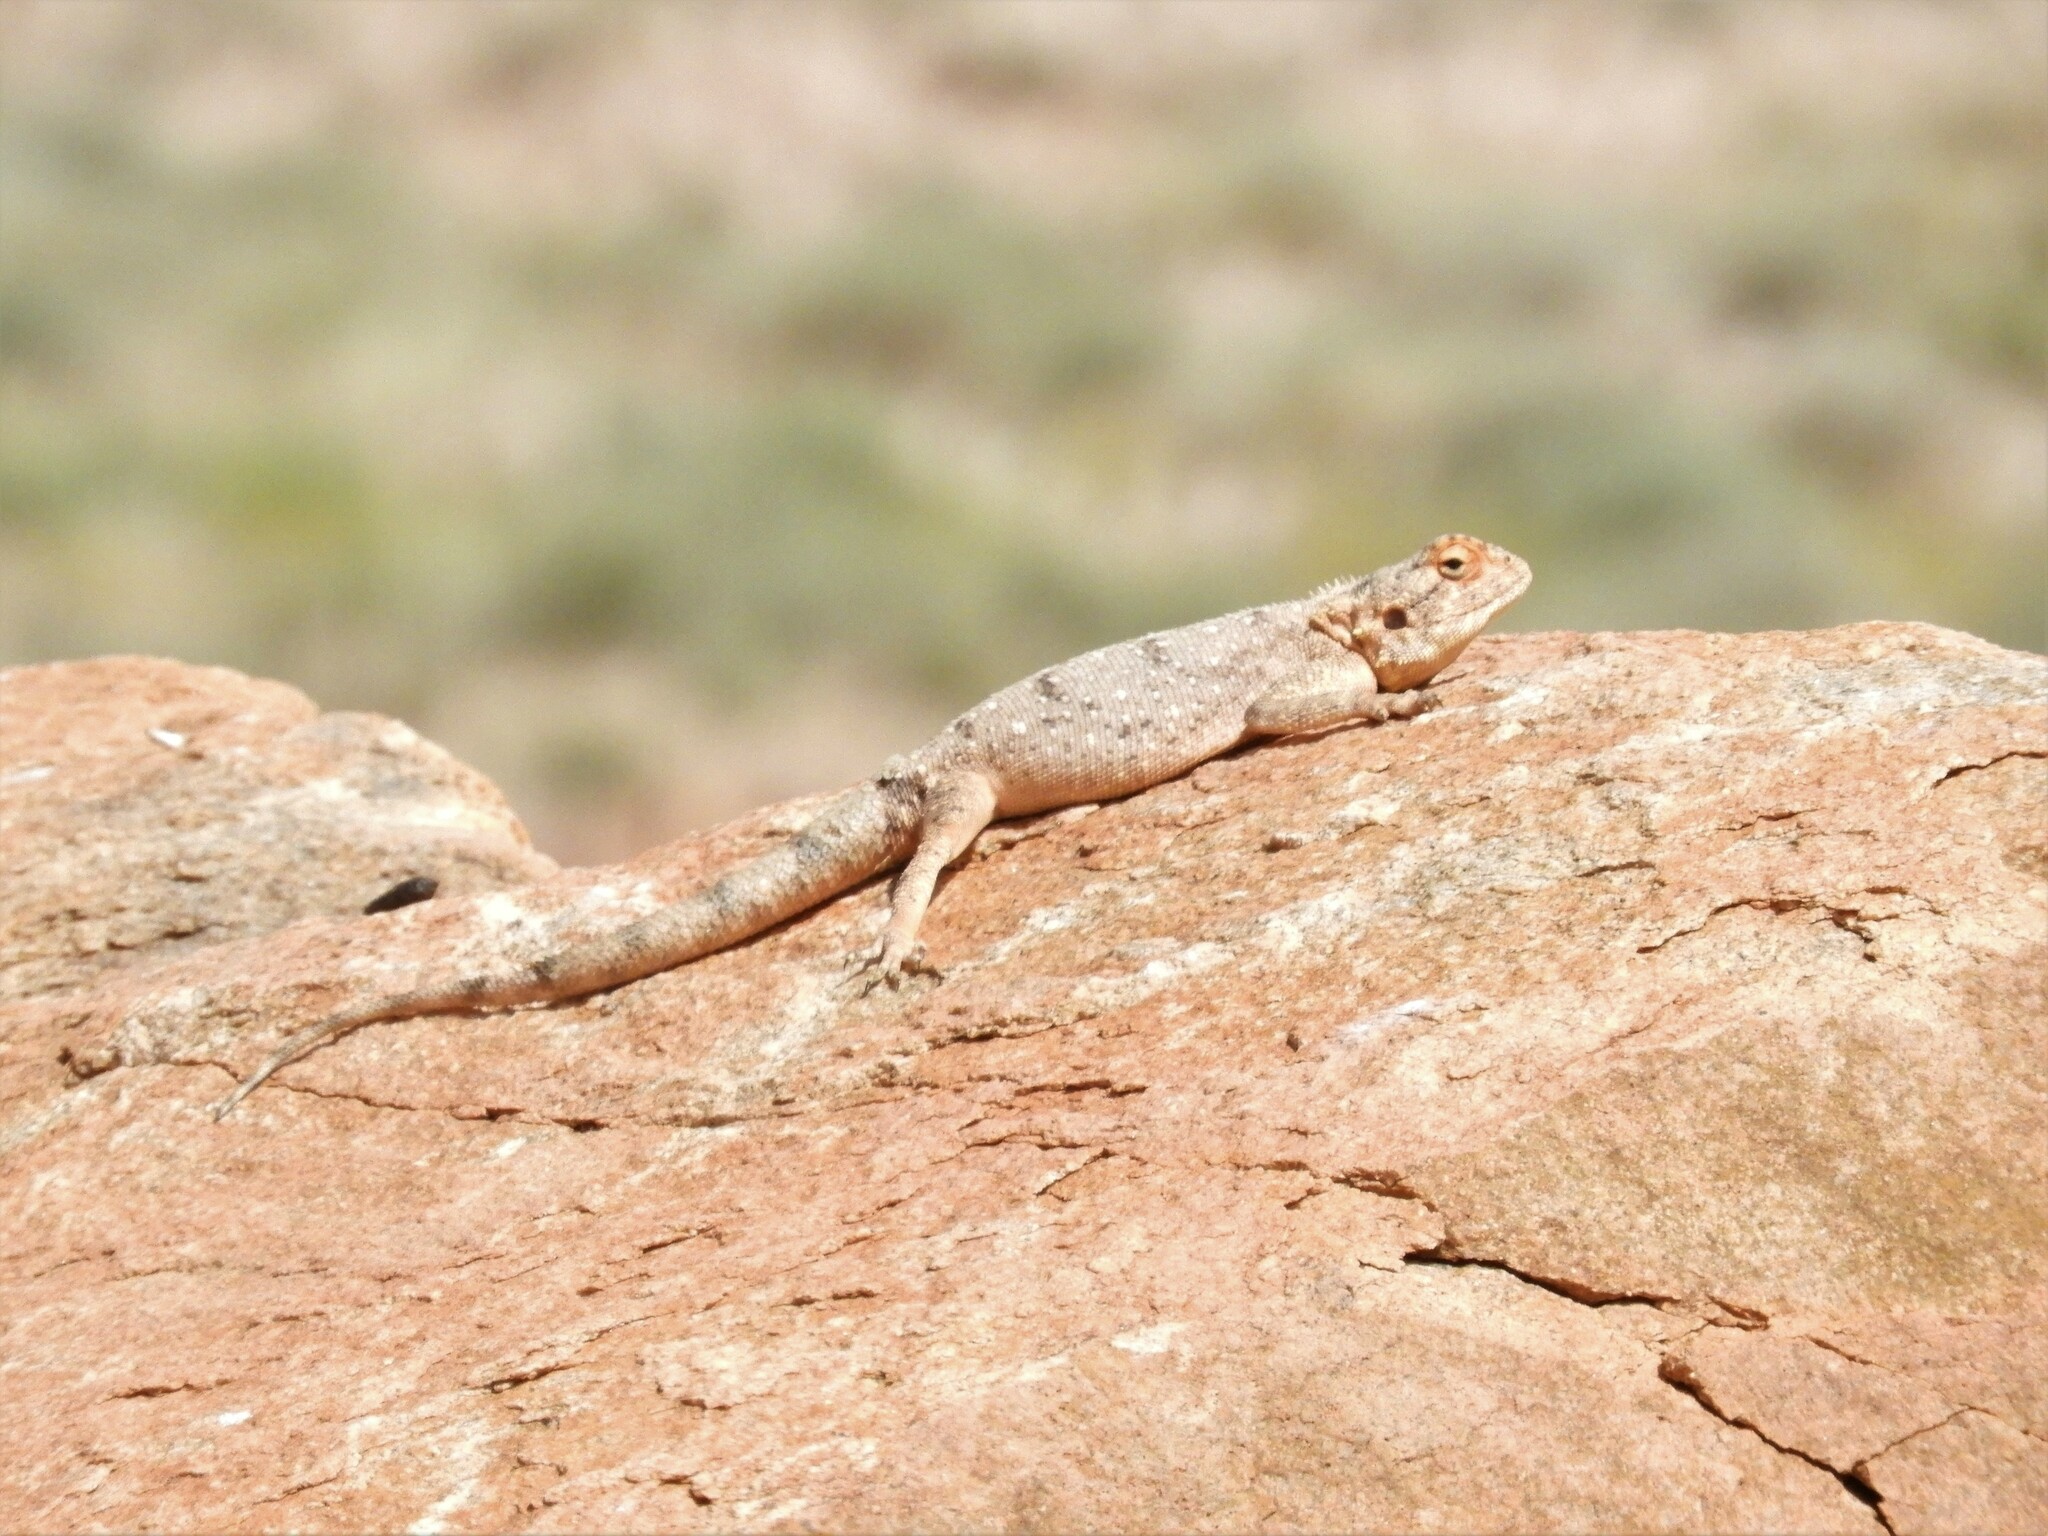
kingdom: Animalia
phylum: Chordata
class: Squamata
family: Agamidae
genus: Agama
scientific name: Agama anchietae
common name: Anchieta's agama
